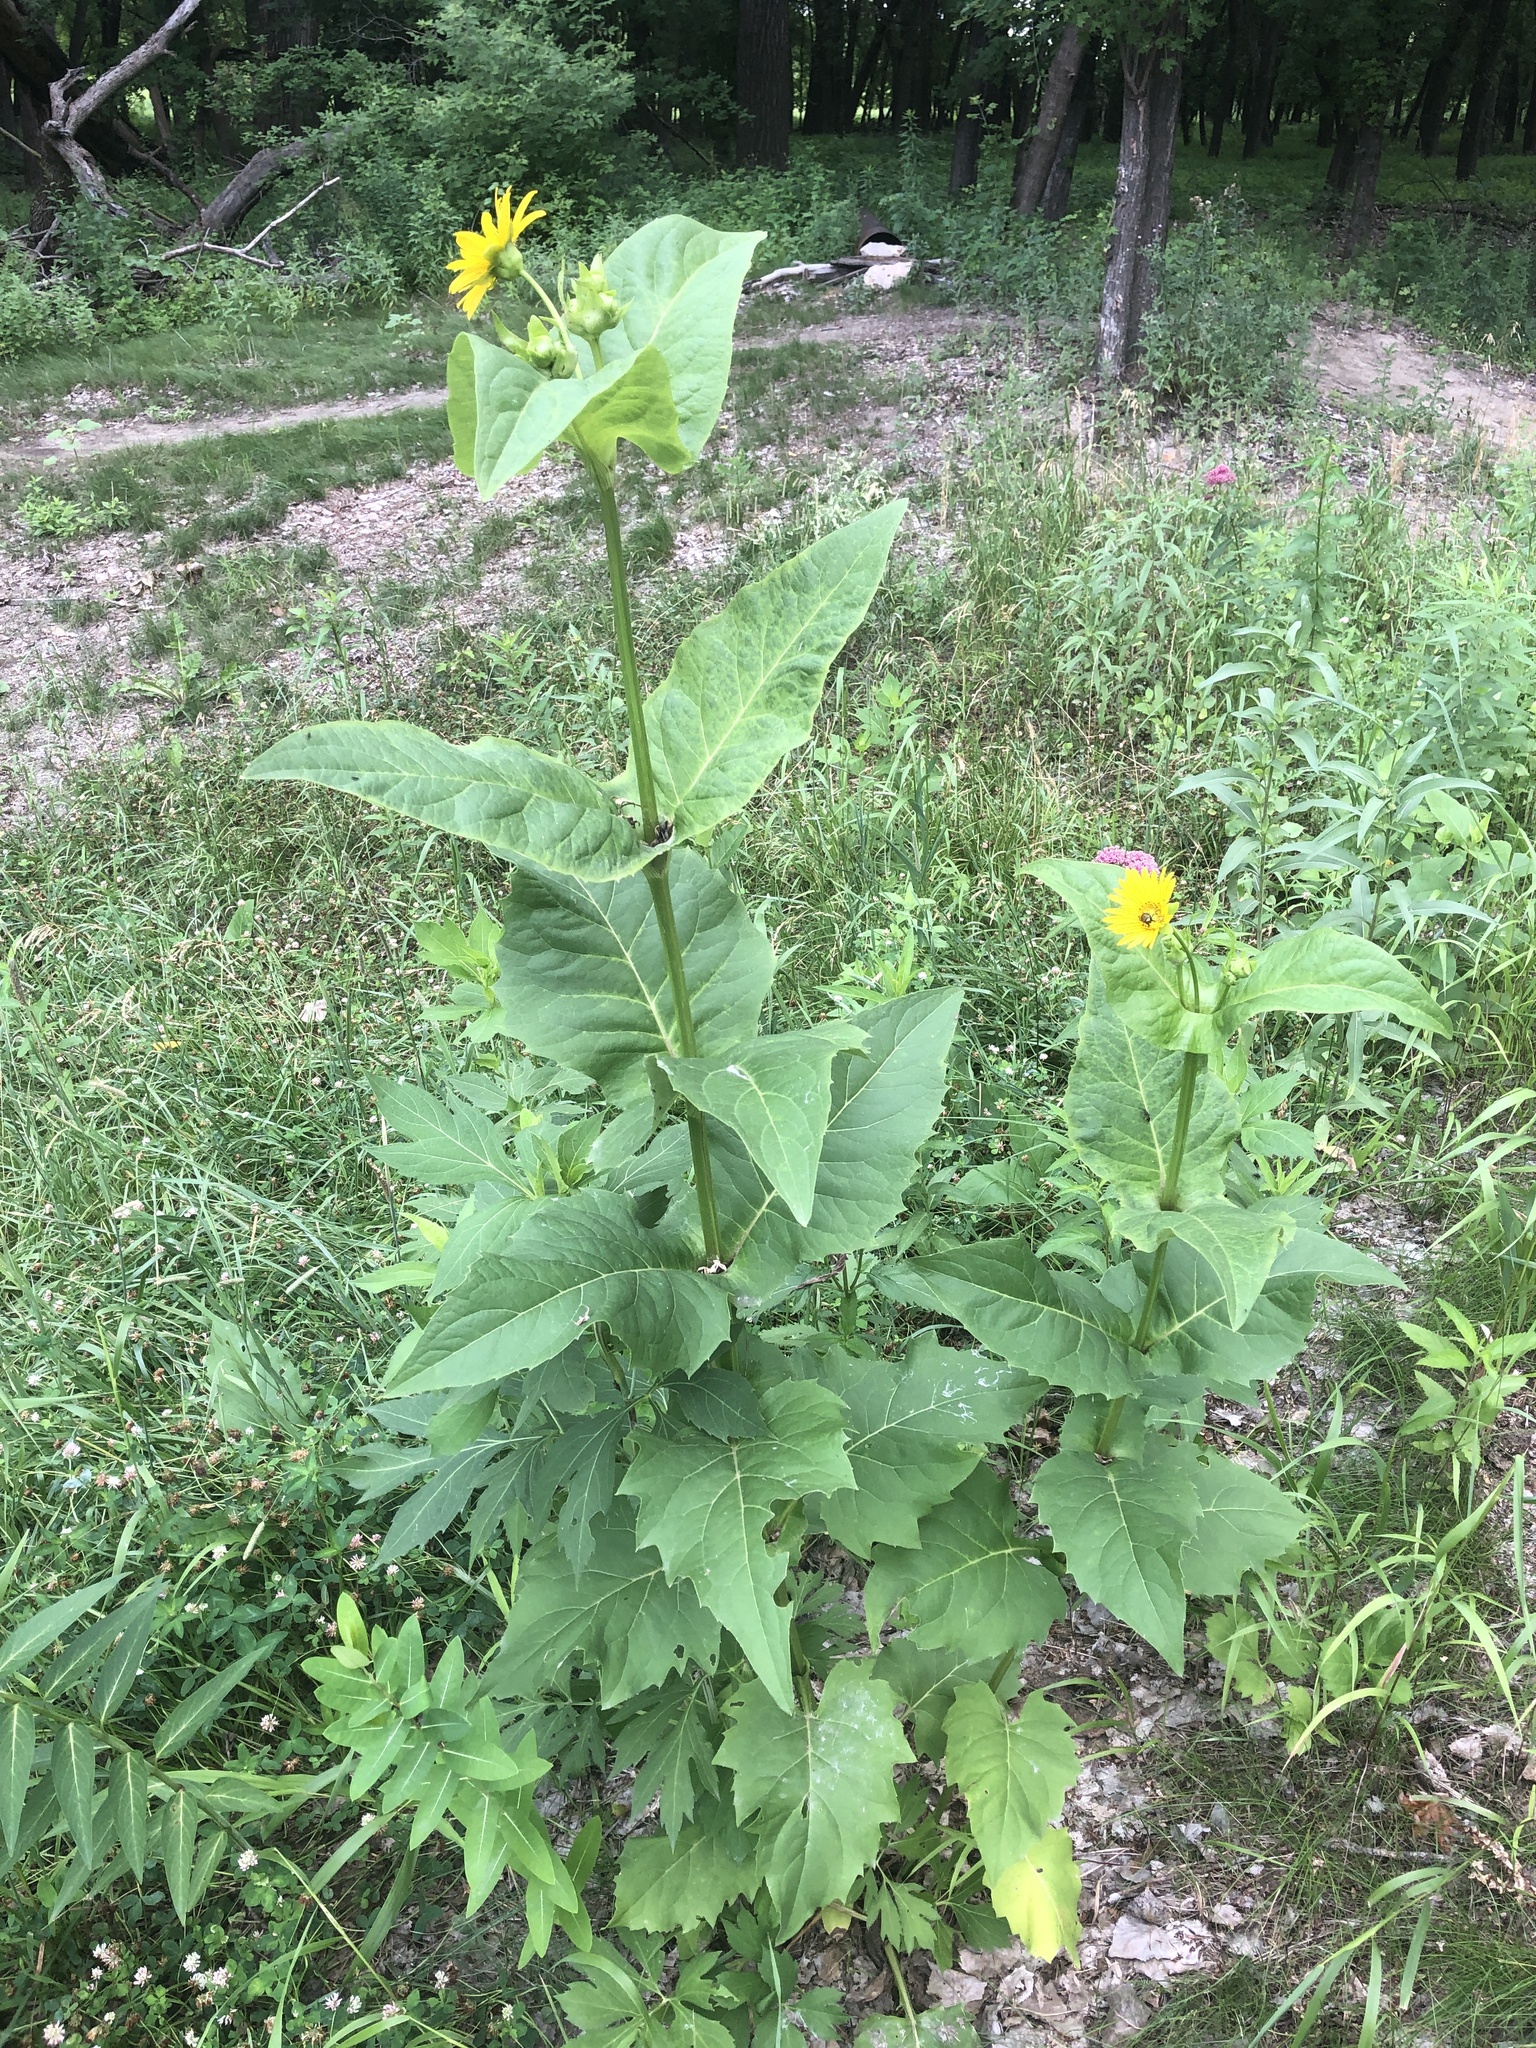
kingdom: Plantae
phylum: Tracheophyta
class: Magnoliopsida
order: Asterales
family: Asteraceae
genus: Silphium
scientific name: Silphium perfoliatum
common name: Cup-plant
